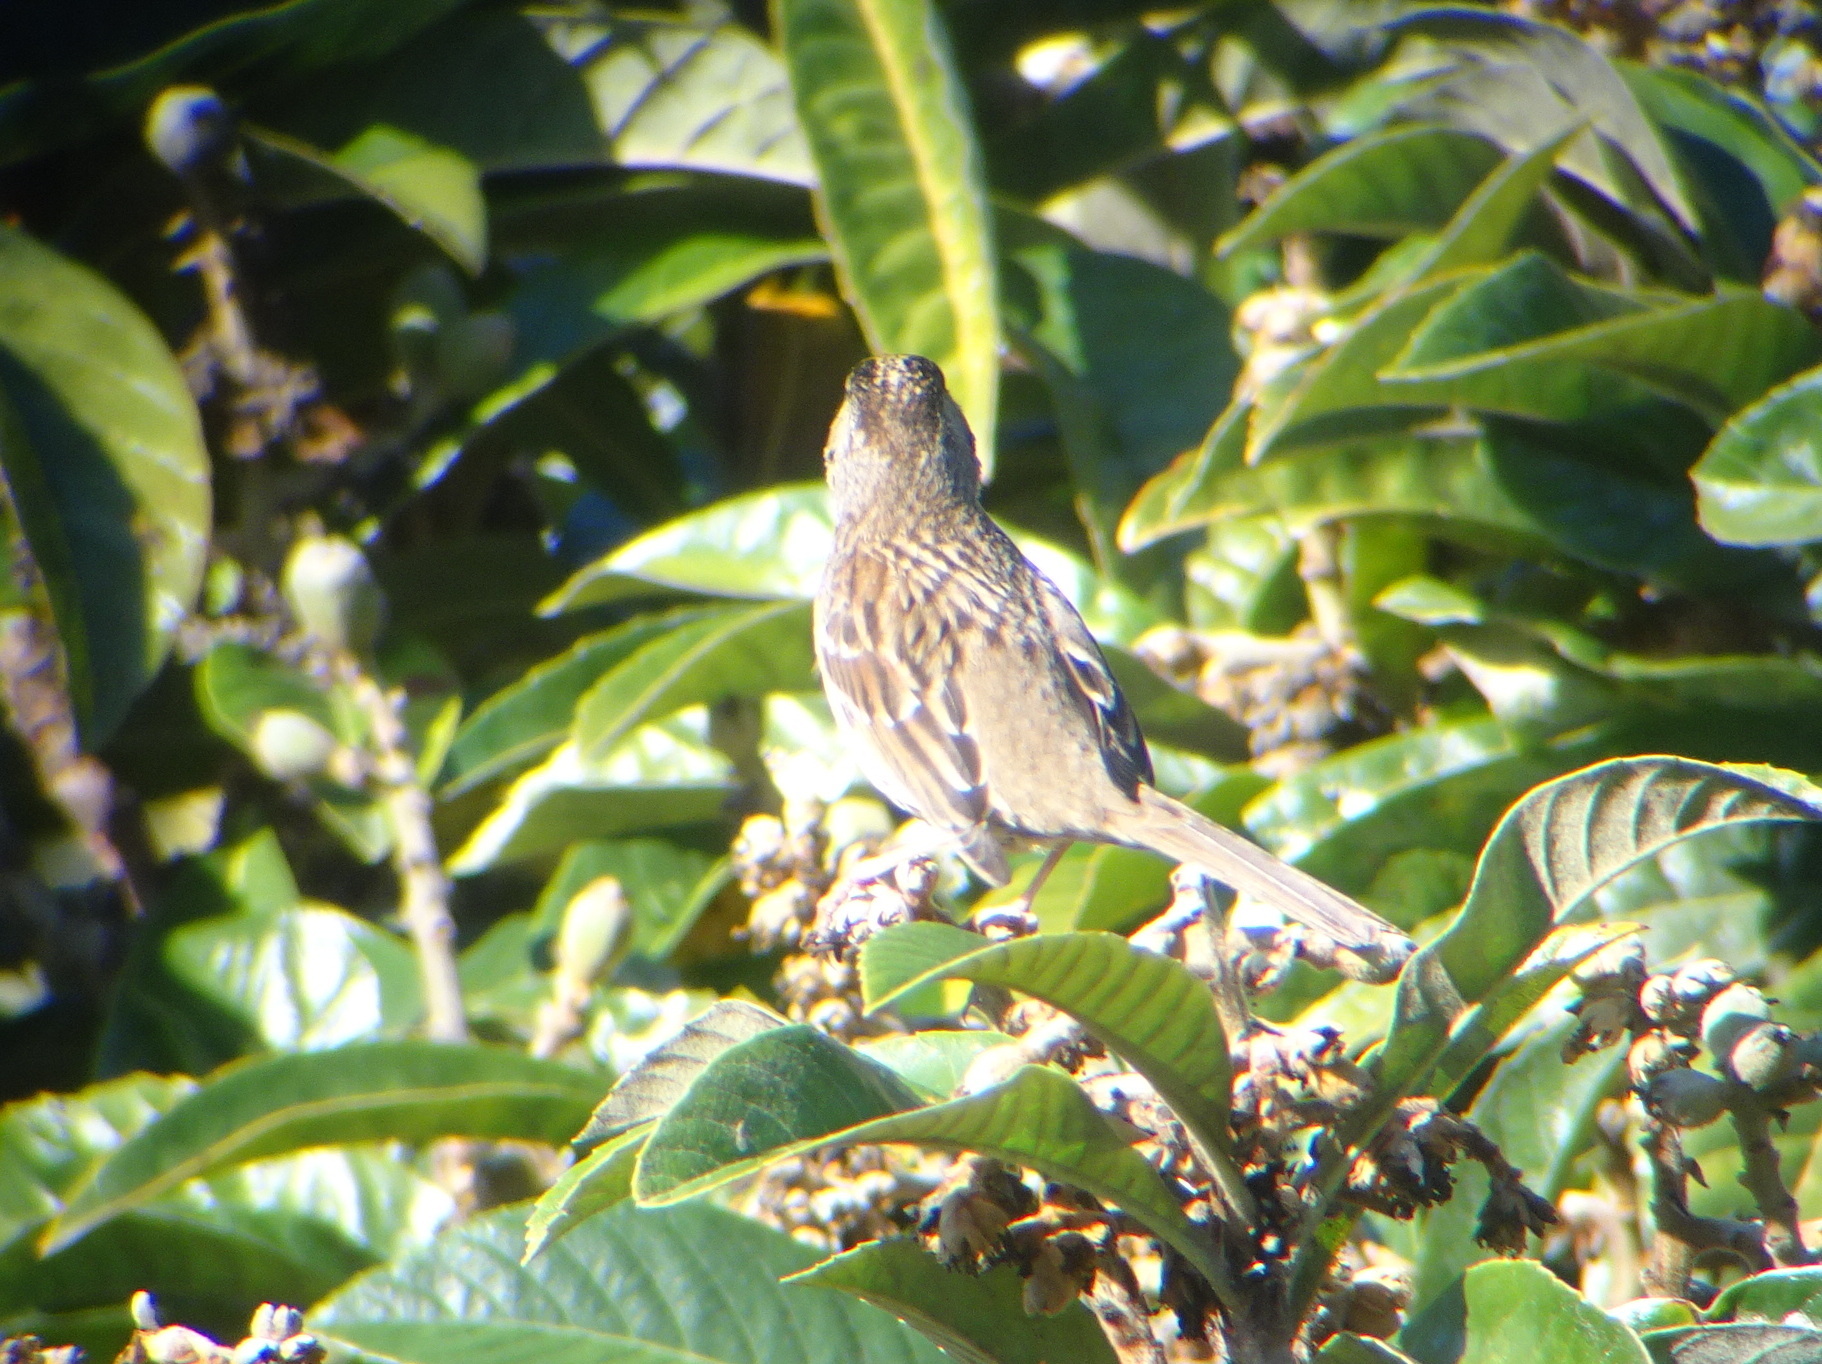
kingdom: Animalia
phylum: Chordata
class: Aves
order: Passeriformes
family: Passerellidae
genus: Zonotrichia
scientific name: Zonotrichia atricapilla
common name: Golden-crowned sparrow
